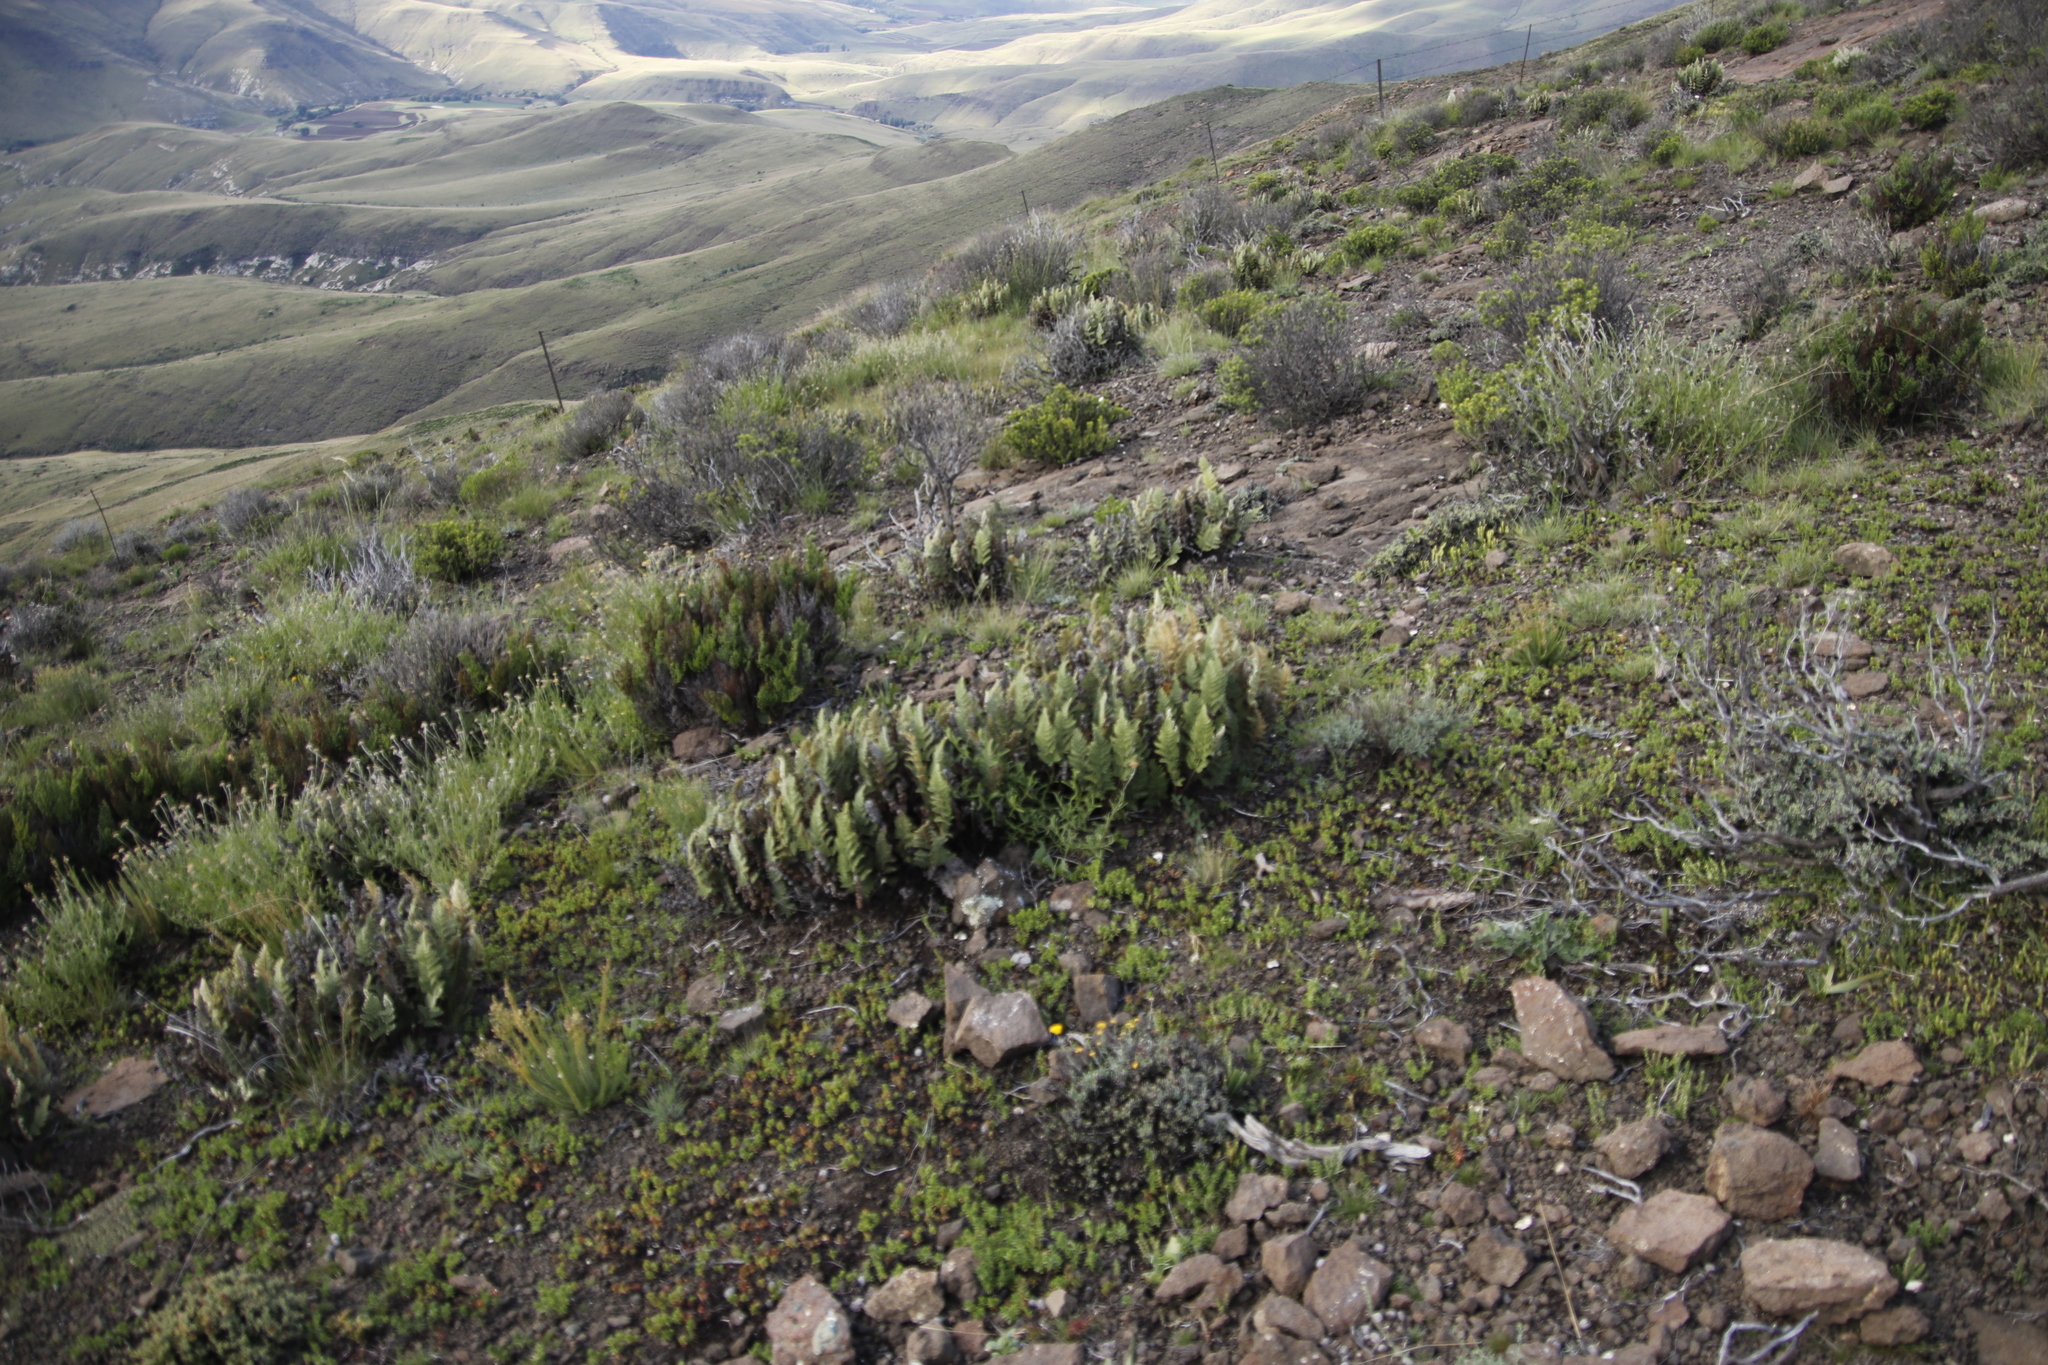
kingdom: Plantae
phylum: Tracheophyta
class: Polypodiopsida
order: Polypodiales
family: Pteridaceae
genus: Cheilanthes
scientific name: Cheilanthes eckloniana
